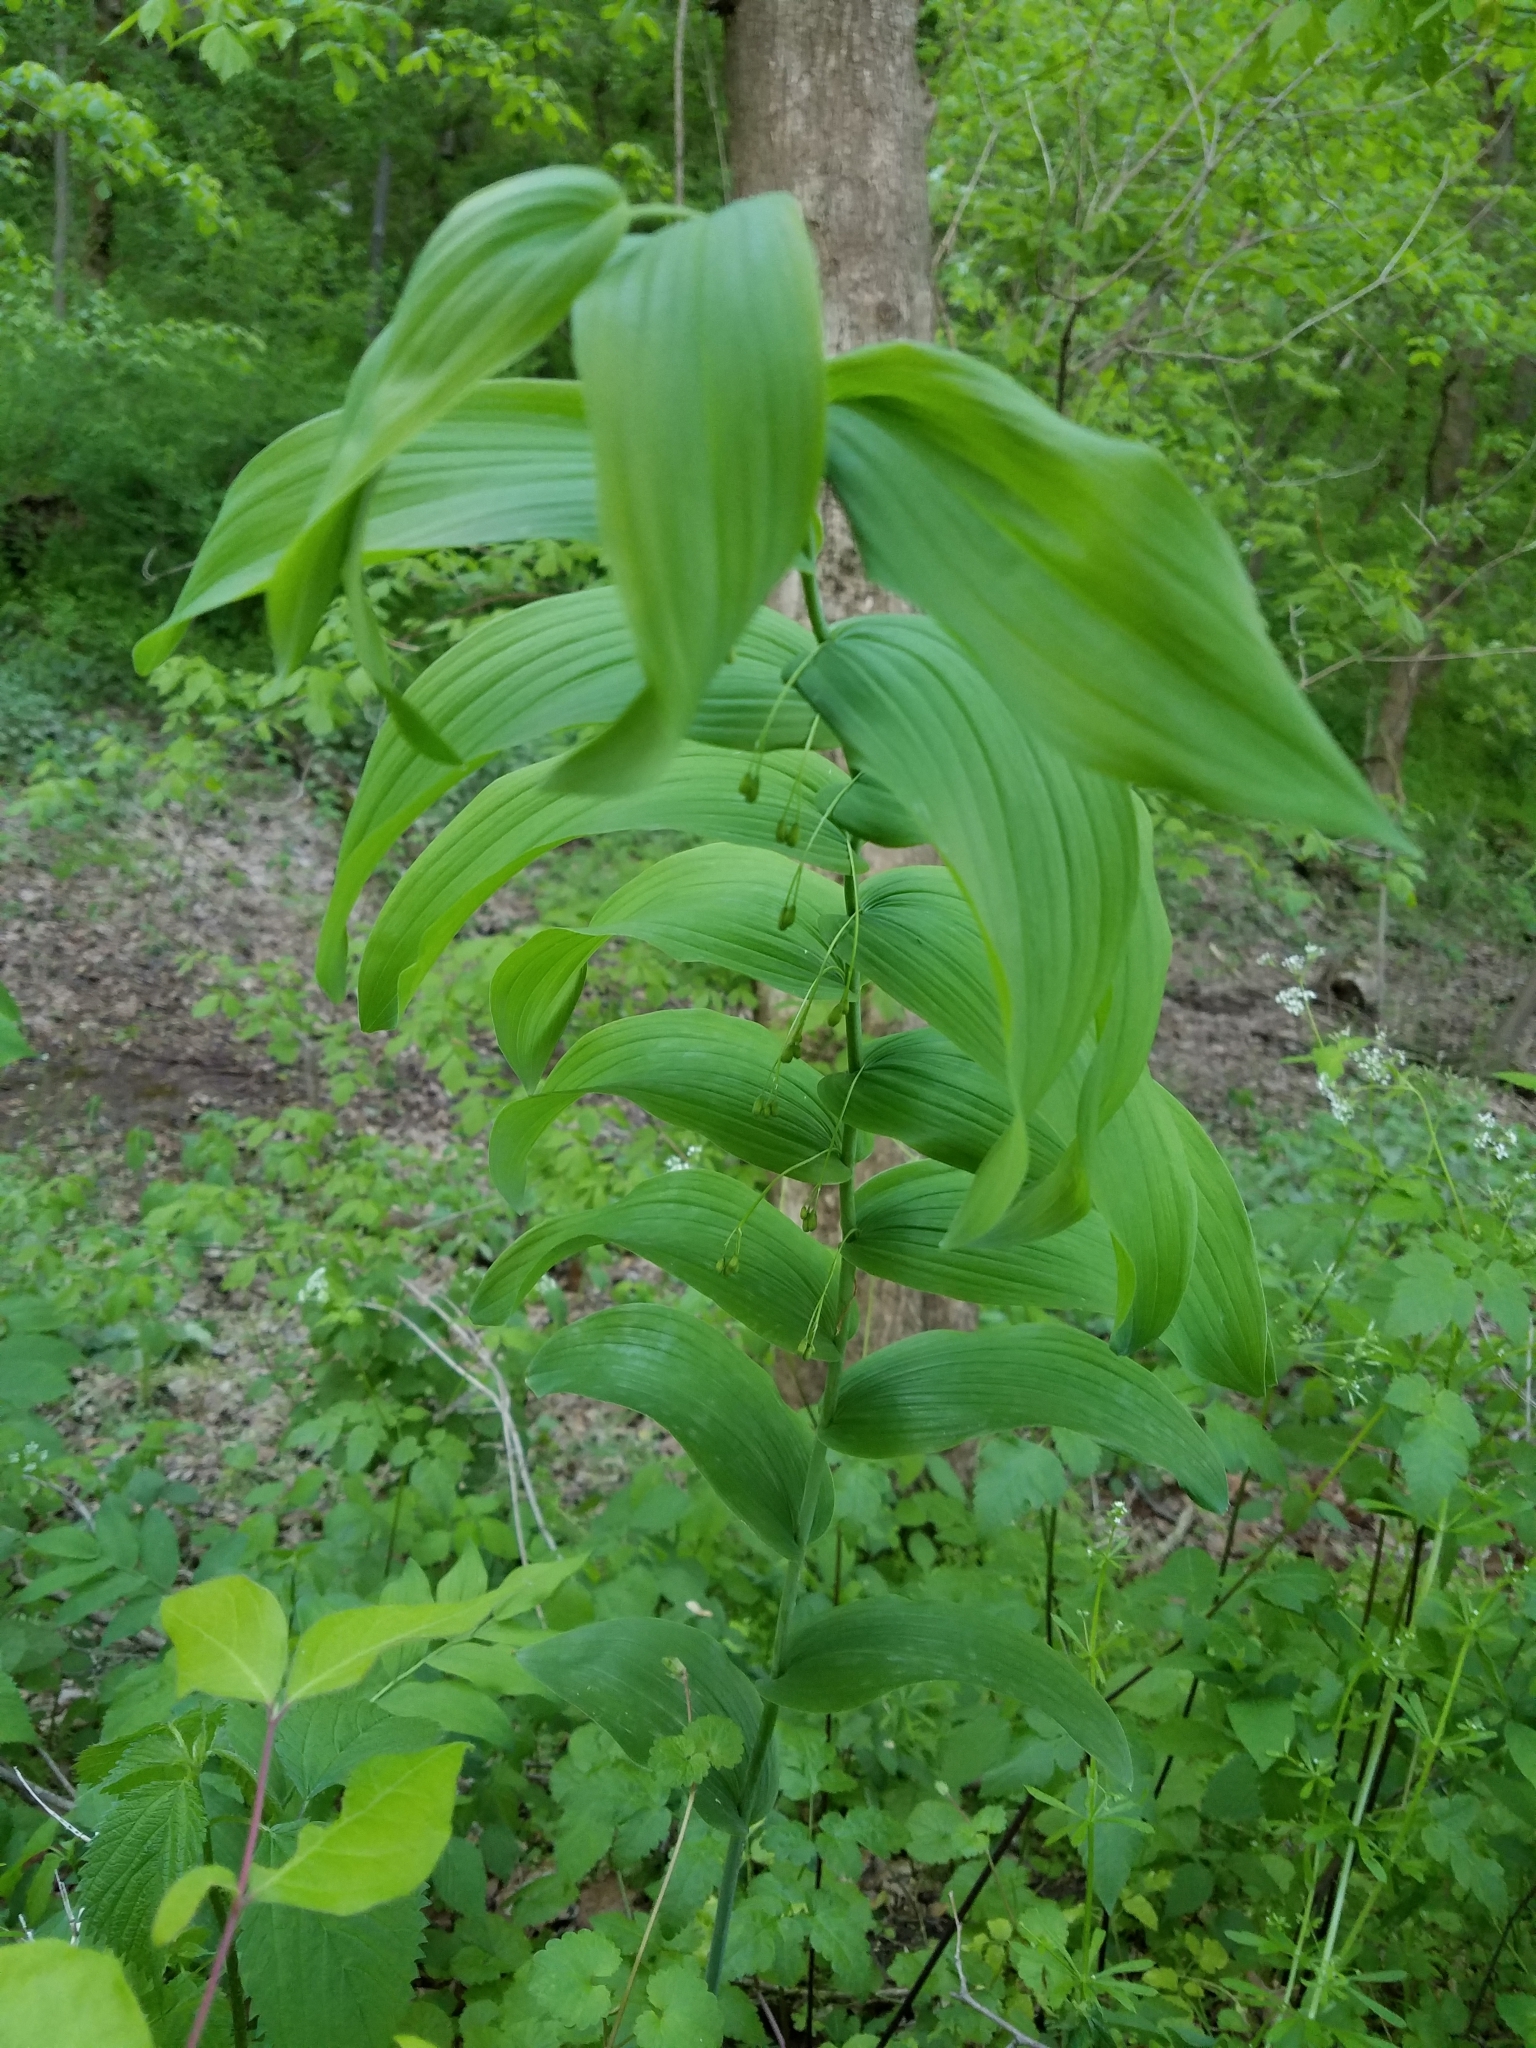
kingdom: Plantae
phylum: Tracheophyta
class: Liliopsida
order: Asparagales
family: Asparagaceae
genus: Polygonatum
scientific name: Polygonatum biflorum
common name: American solomon's-seal
